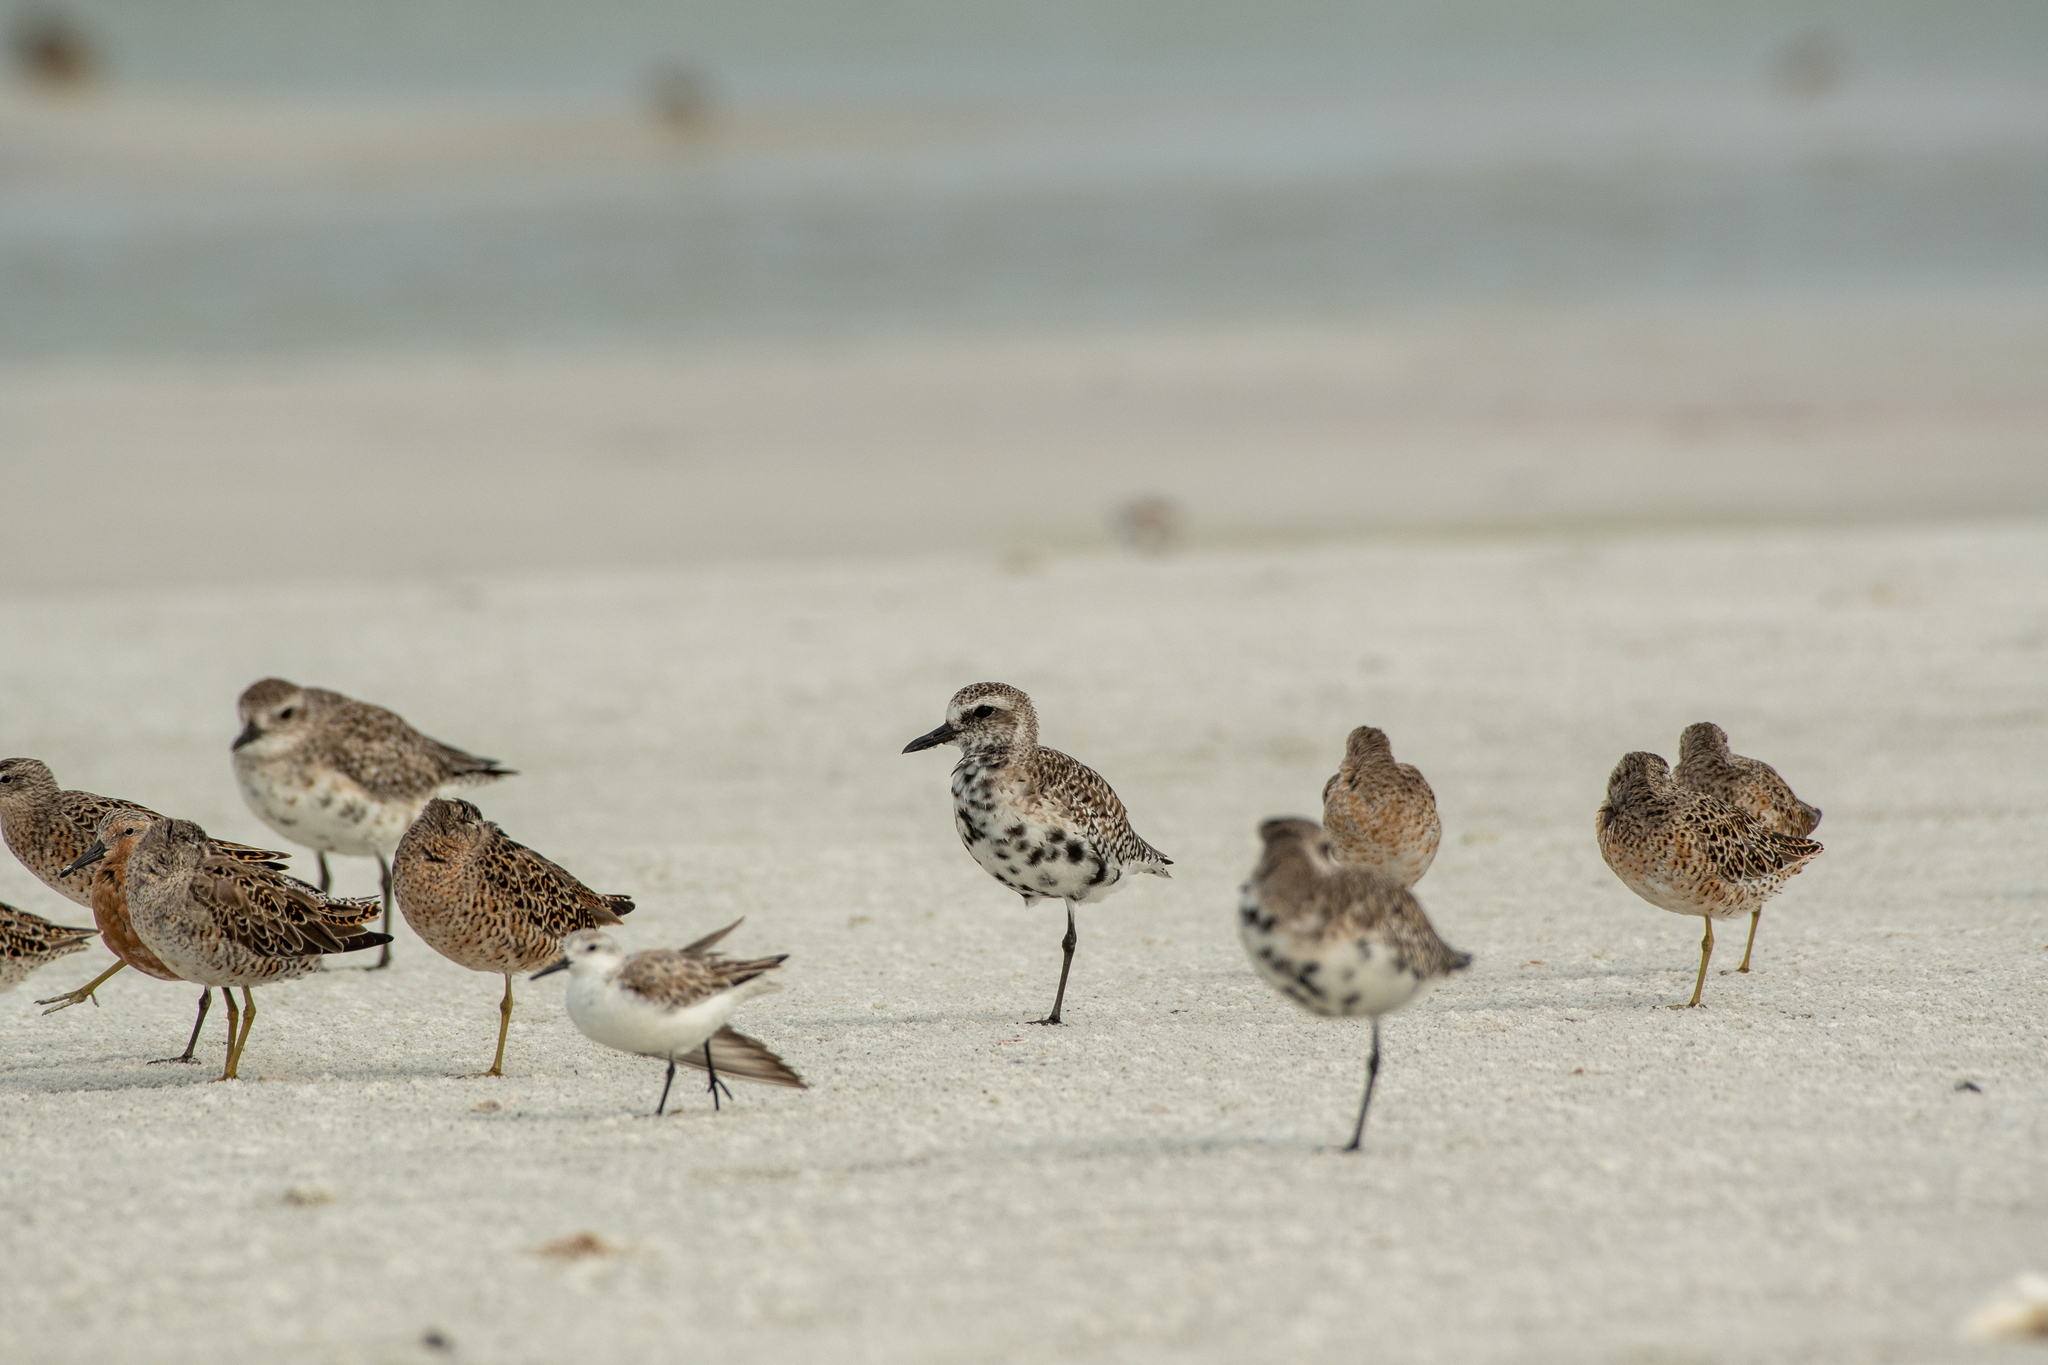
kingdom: Animalia
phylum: Chordata
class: Aves
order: Charadriiformes
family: Charadriidae
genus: Pluvialis
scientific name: Pluvialis squatarola
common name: Grey plover
